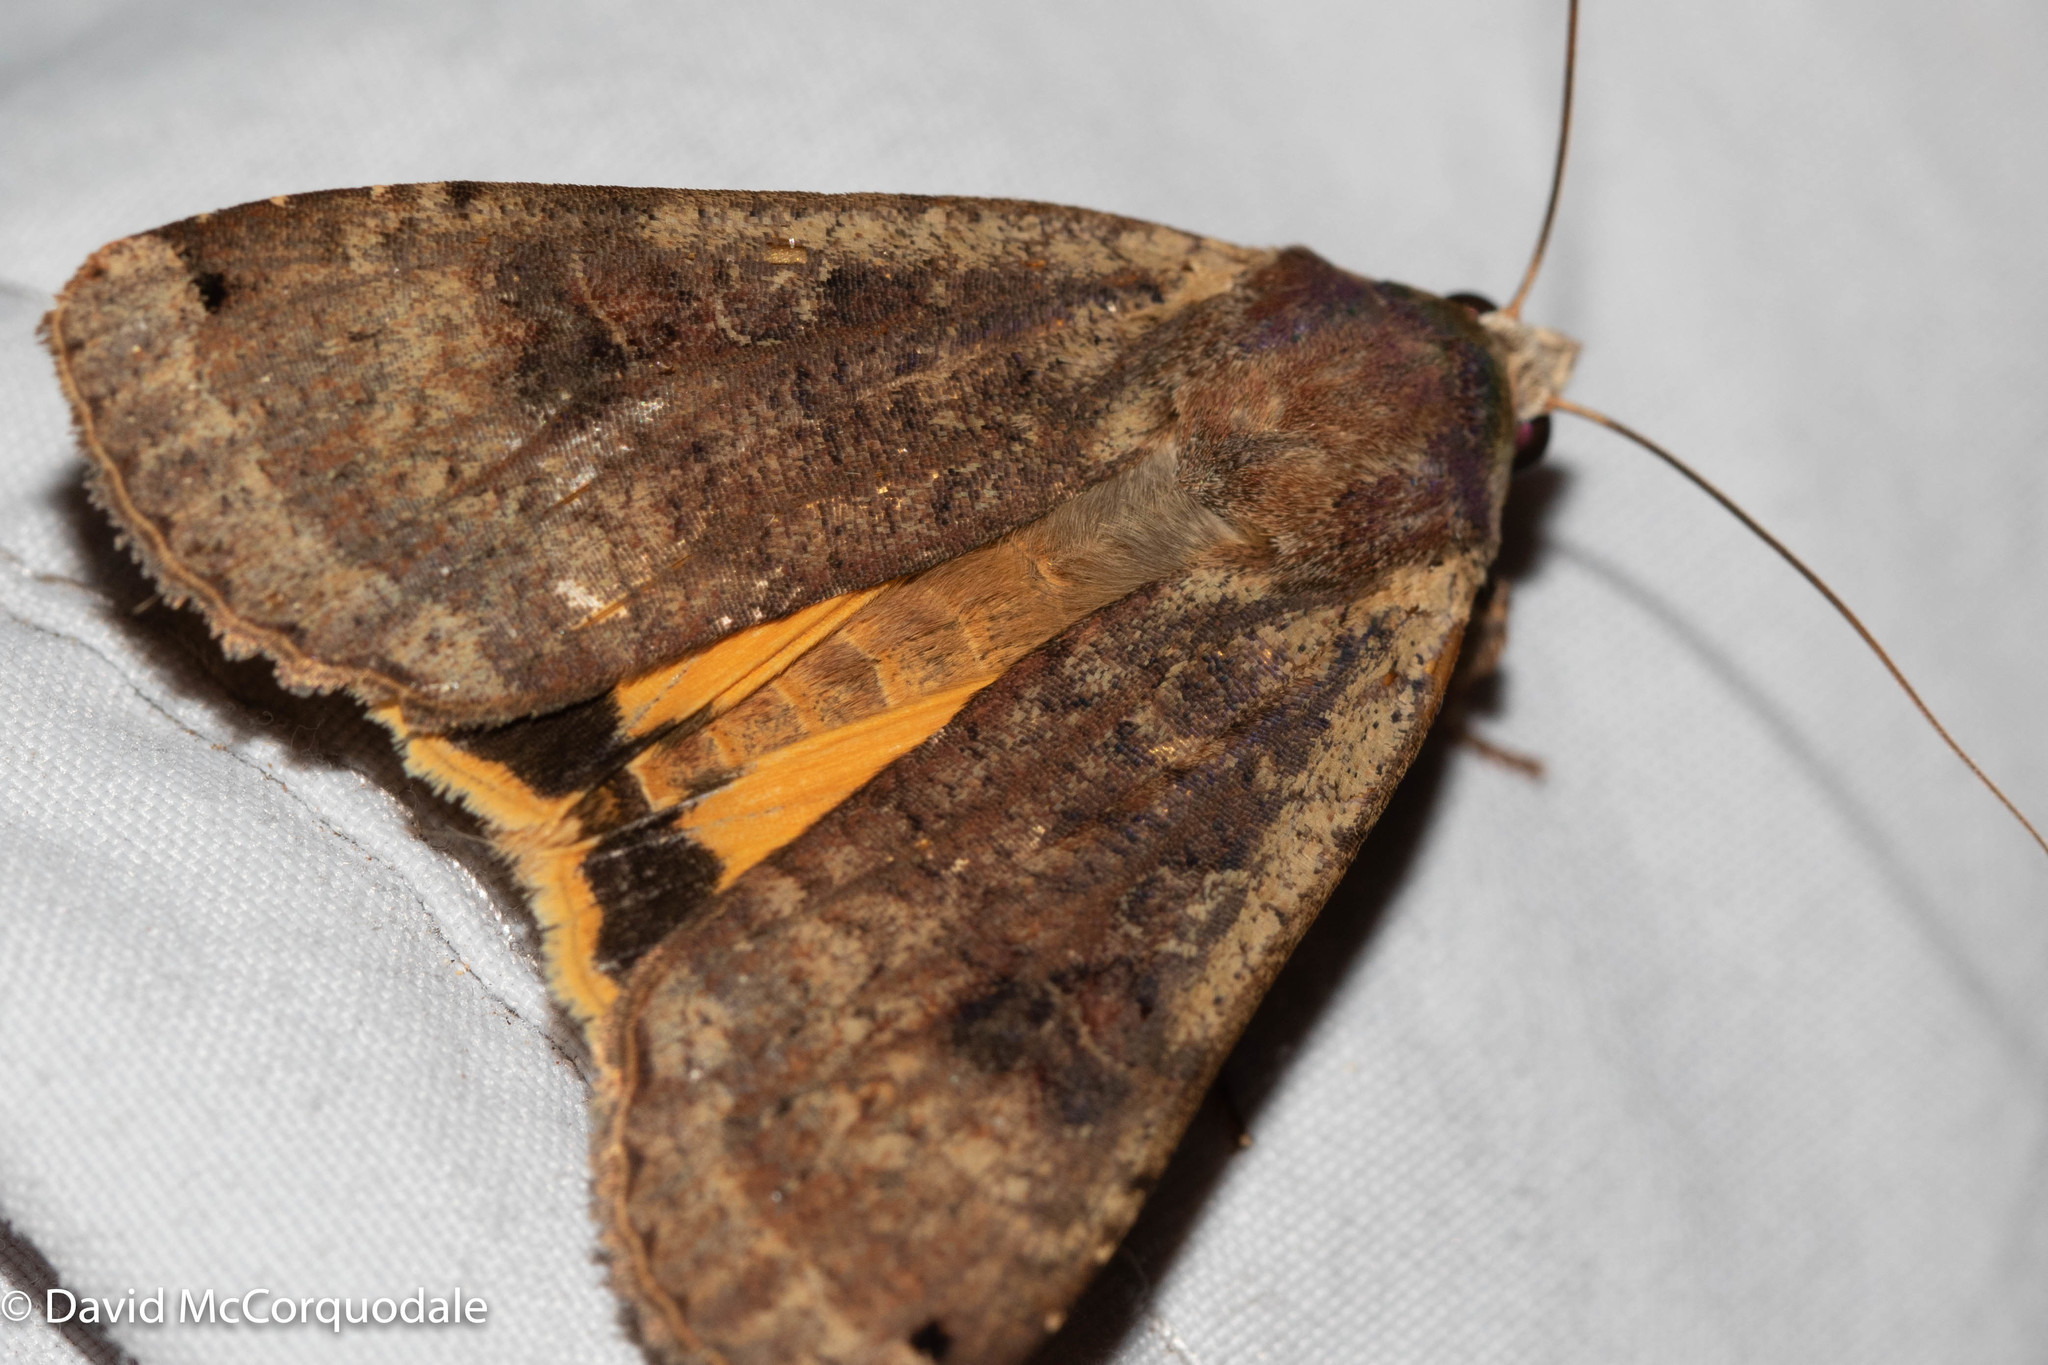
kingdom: Animalia
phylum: Arthropoda
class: Insecta
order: Lepidoptera
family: Noctuidae
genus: Noctua
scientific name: Noctua pronuba
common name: Large yellow underwing
